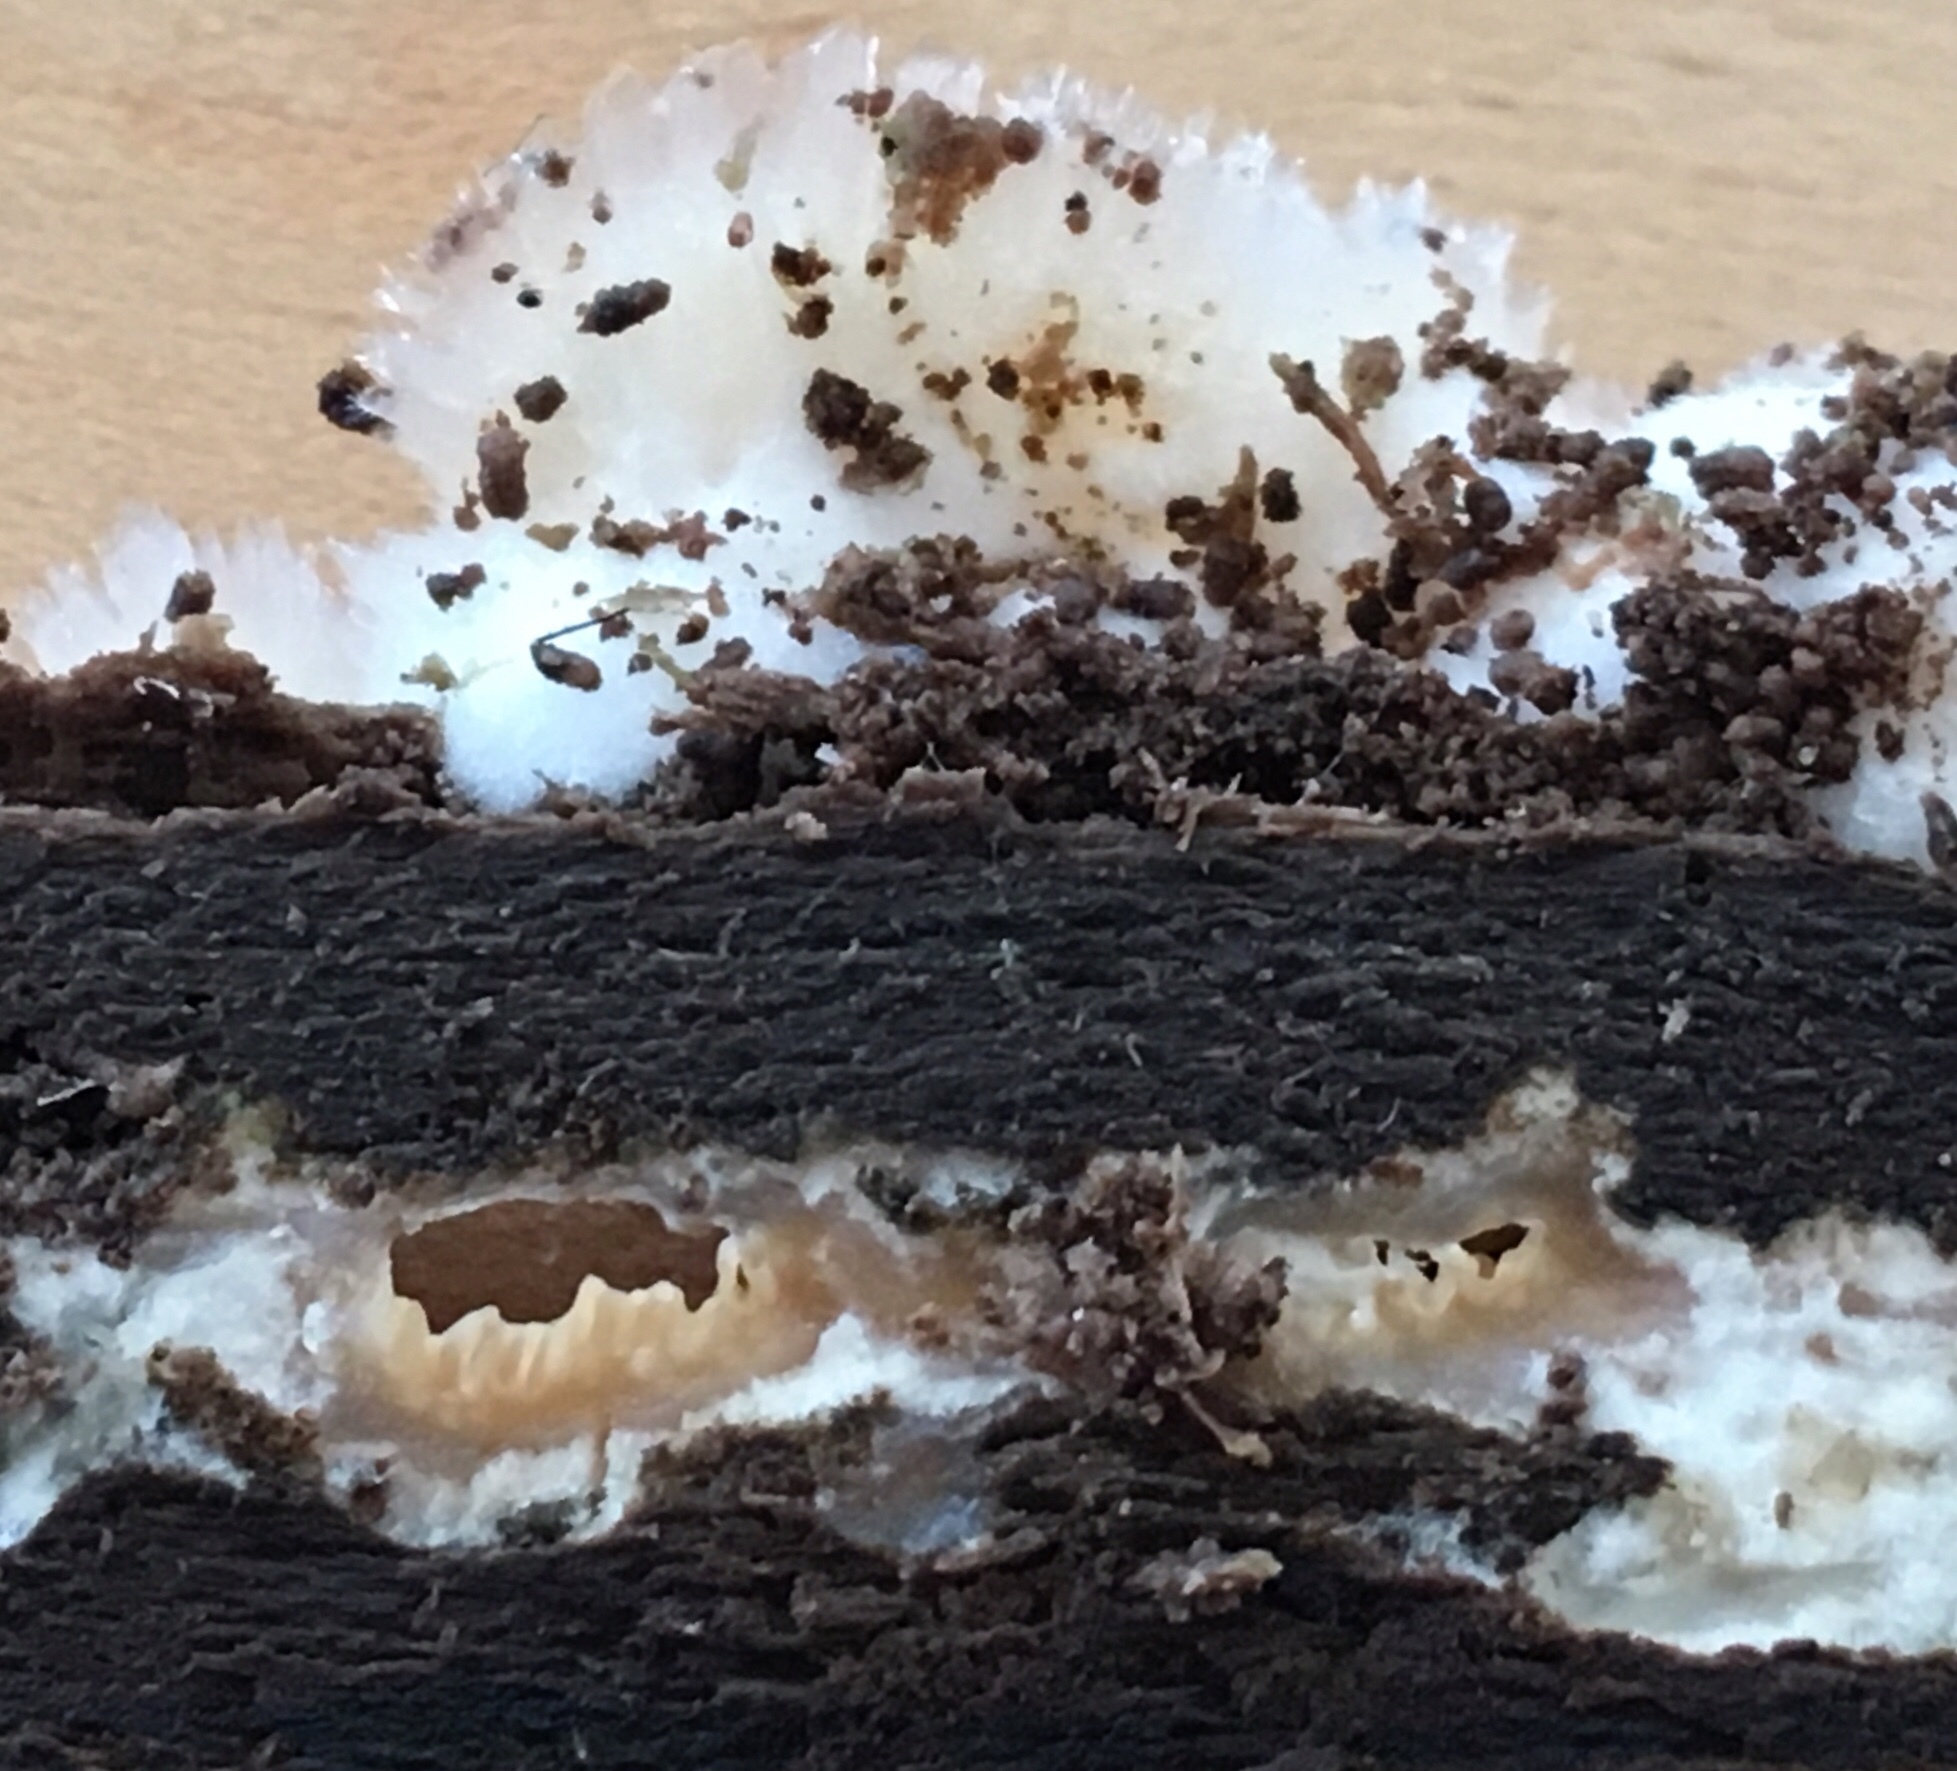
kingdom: Fungi
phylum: Basidiomycota
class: Agaricomycetes
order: Polyporales
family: Meruliaceae
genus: Phlebia
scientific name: Phlebia tremellosa
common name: Jelly rot
